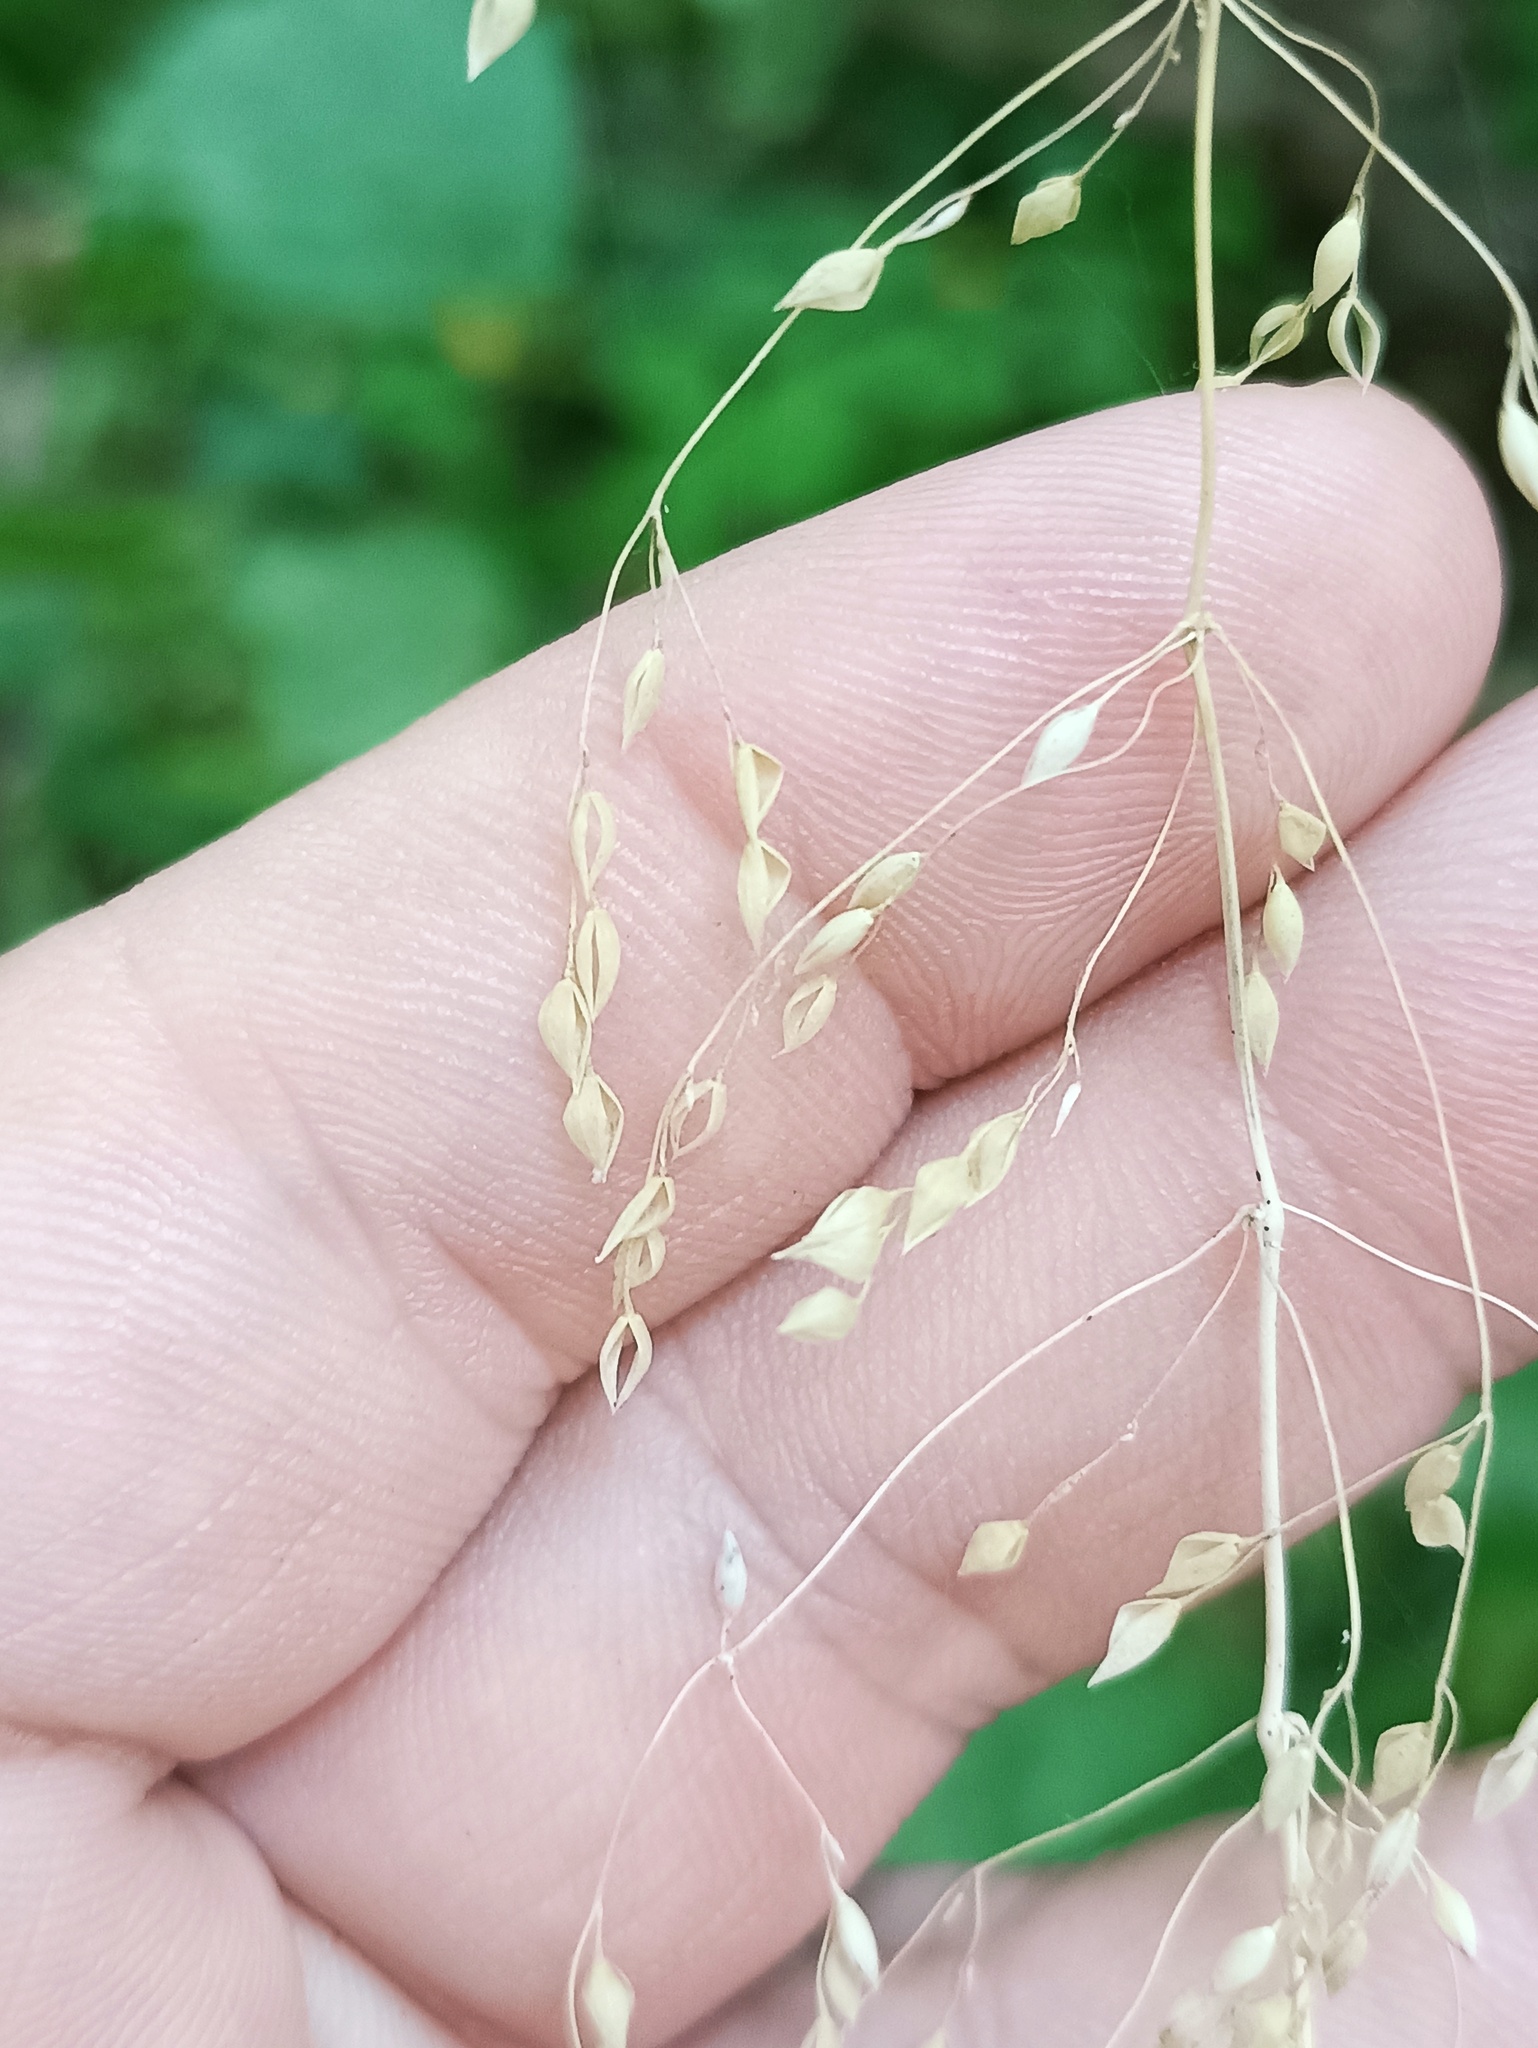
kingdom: Plantae
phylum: Tracheophyta
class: Liliopsida
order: Poales
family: Poaceae
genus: Milium
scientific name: Milium effusum
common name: Wood millet
